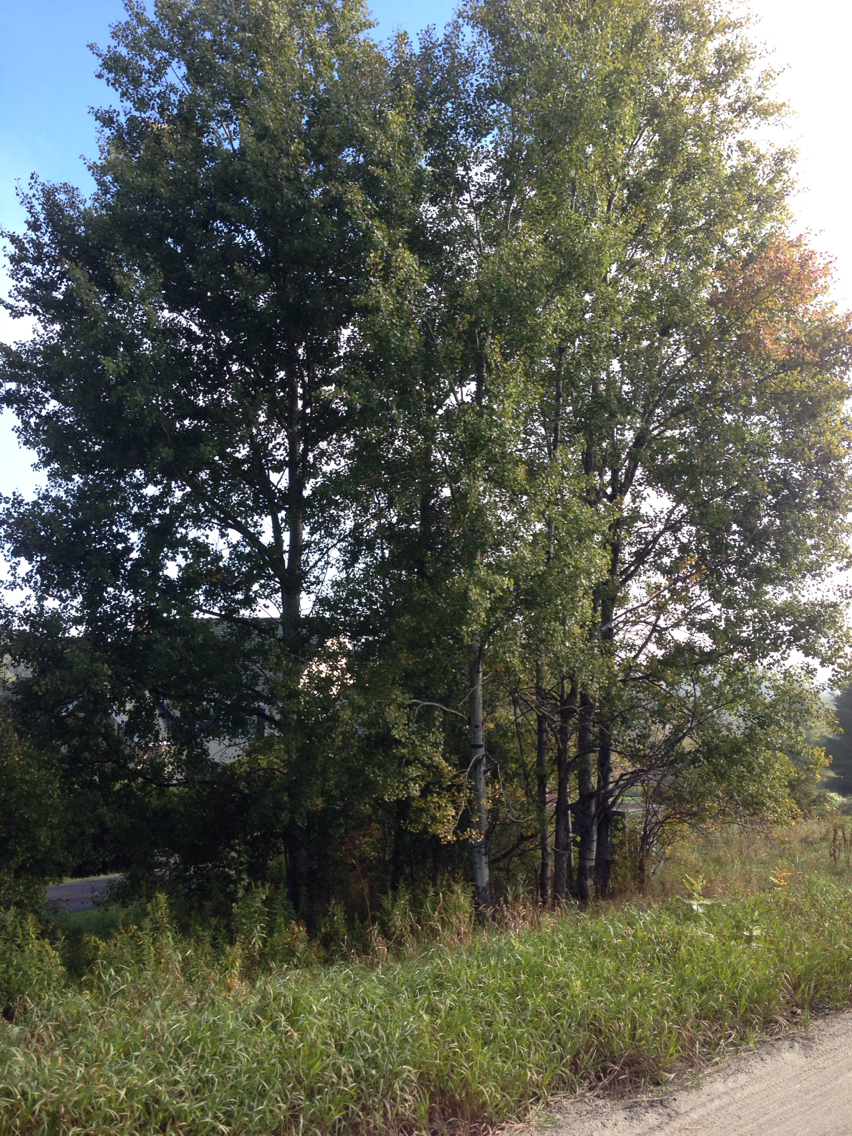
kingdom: Plantae
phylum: Tracheophyta
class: Magnoliopsida
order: Malpighiales
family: Salicaceae
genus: Populus
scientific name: Populus tremuloides
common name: Quaking aspen
